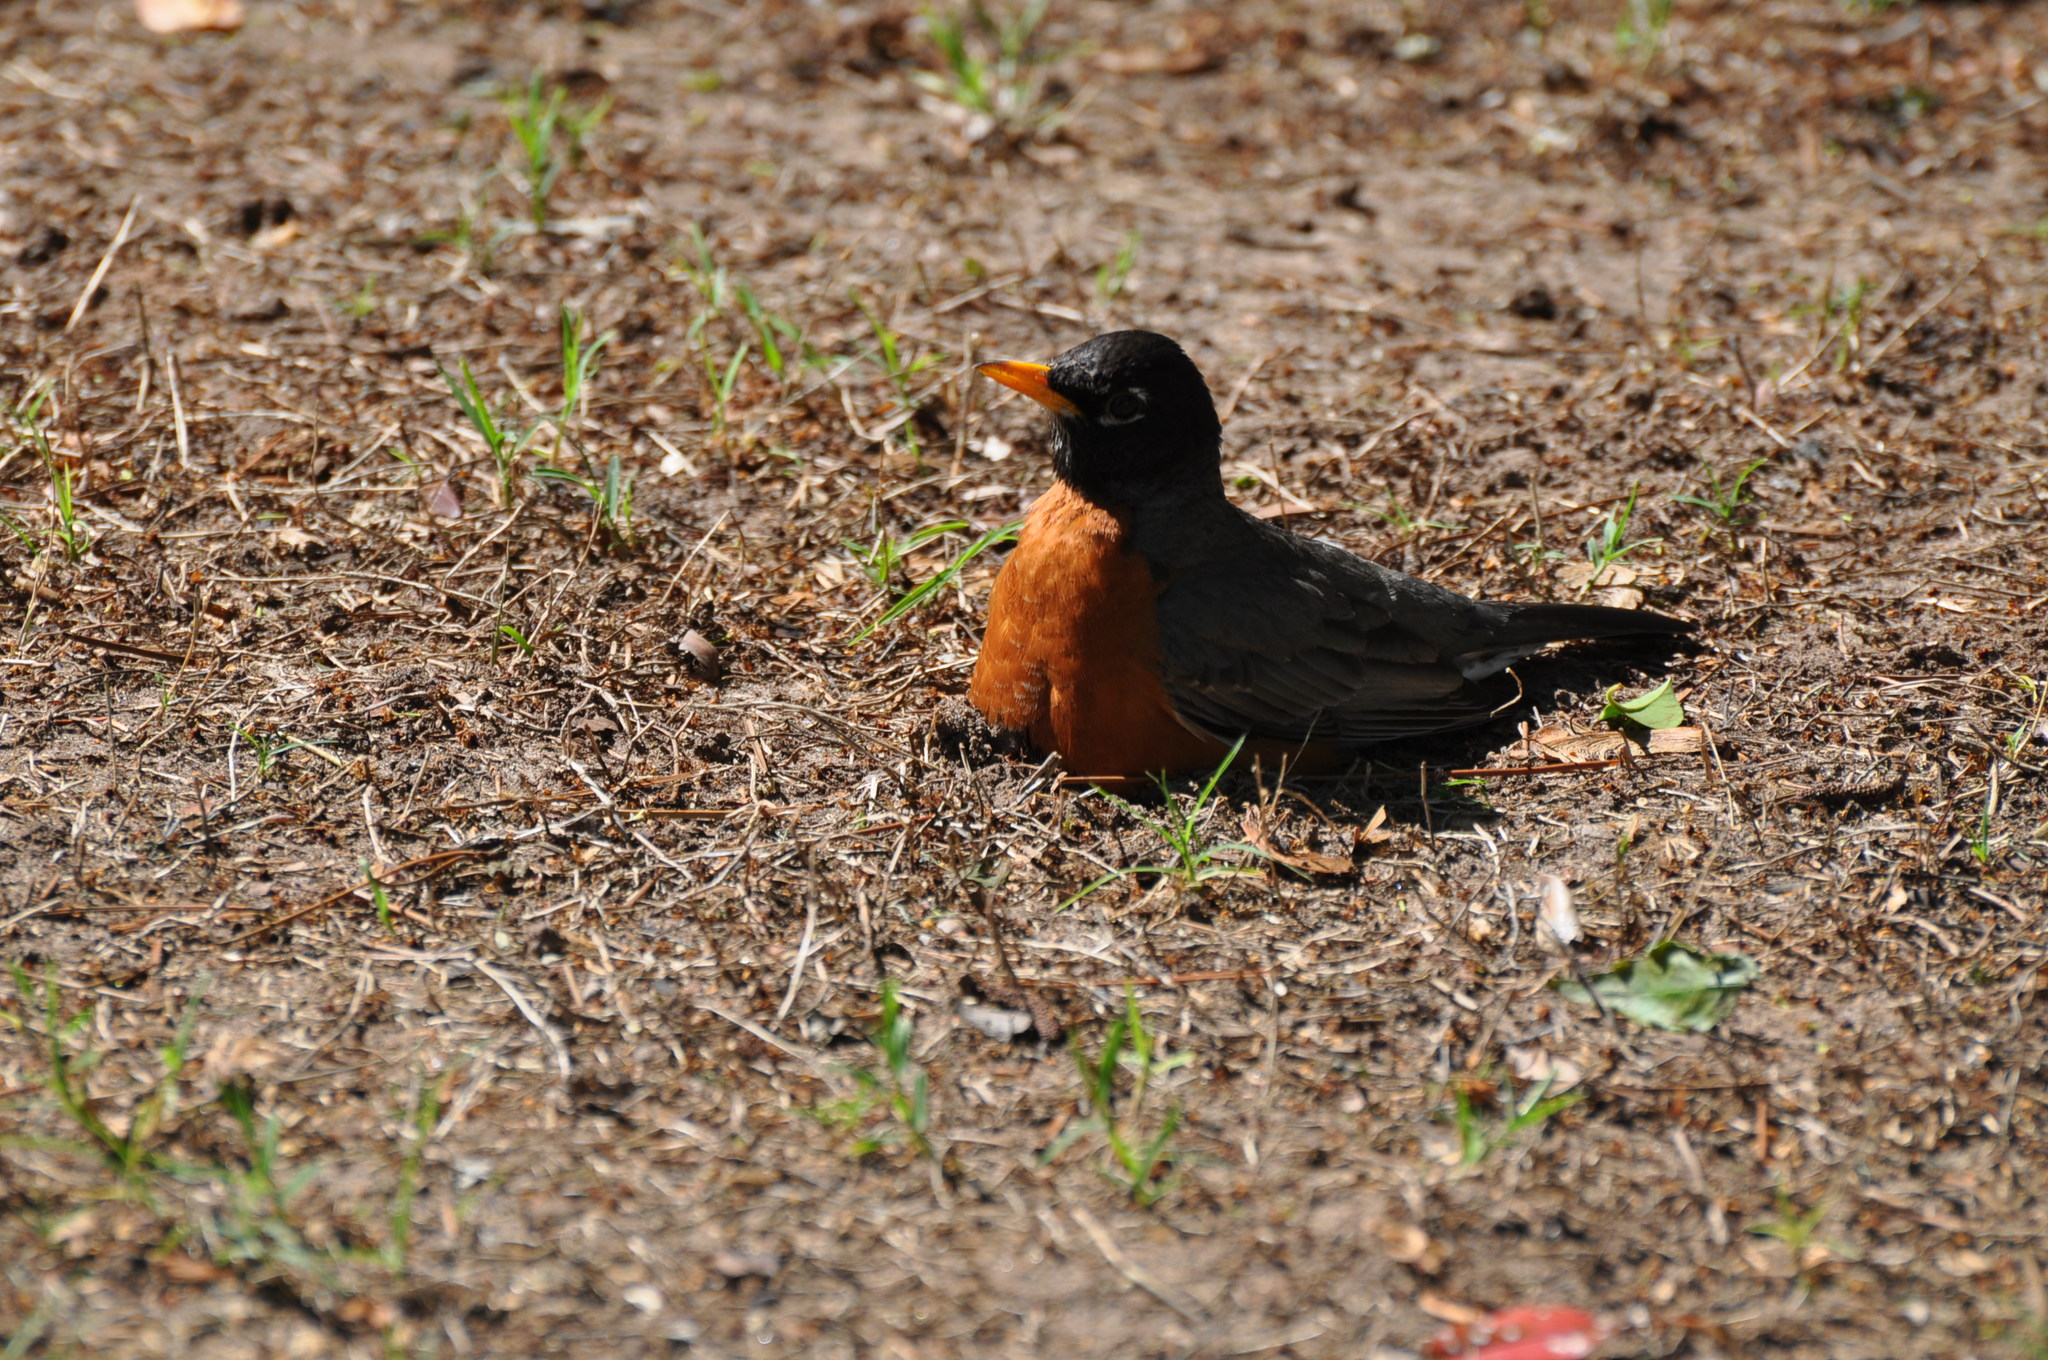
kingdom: Animalia
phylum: Chordata
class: Aves
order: Passeriformes
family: Turdidae
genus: Turdus
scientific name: Turdus migratorius
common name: American robin
